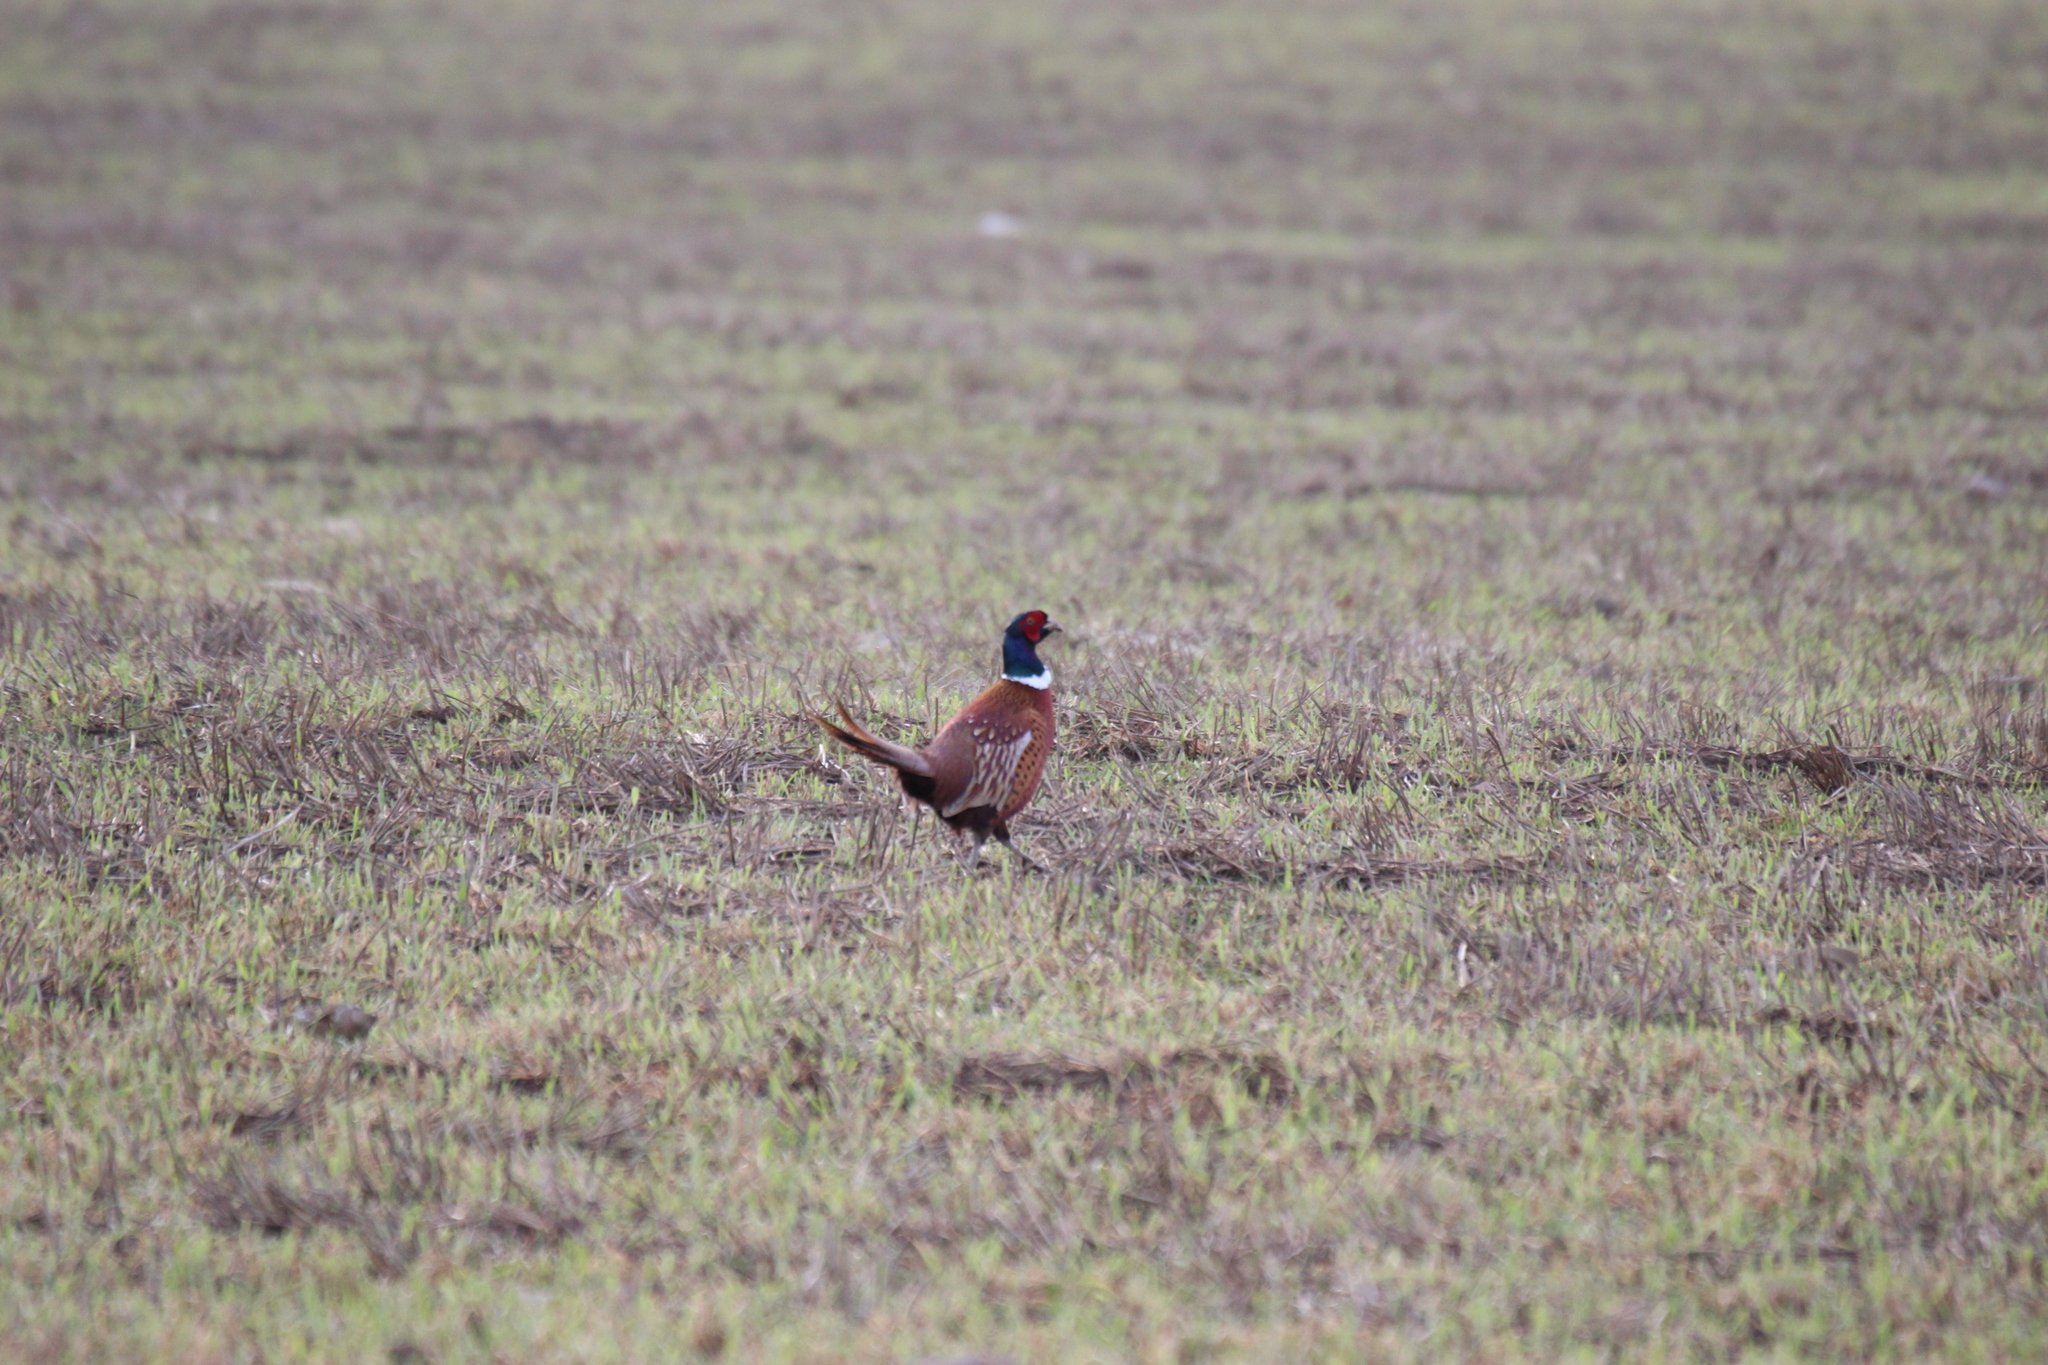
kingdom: Animalia
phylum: Chordata
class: Aves
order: Galliformes
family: Phasianidae
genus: Phasianus
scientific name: Phasianus colchicus
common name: Common pheasant
